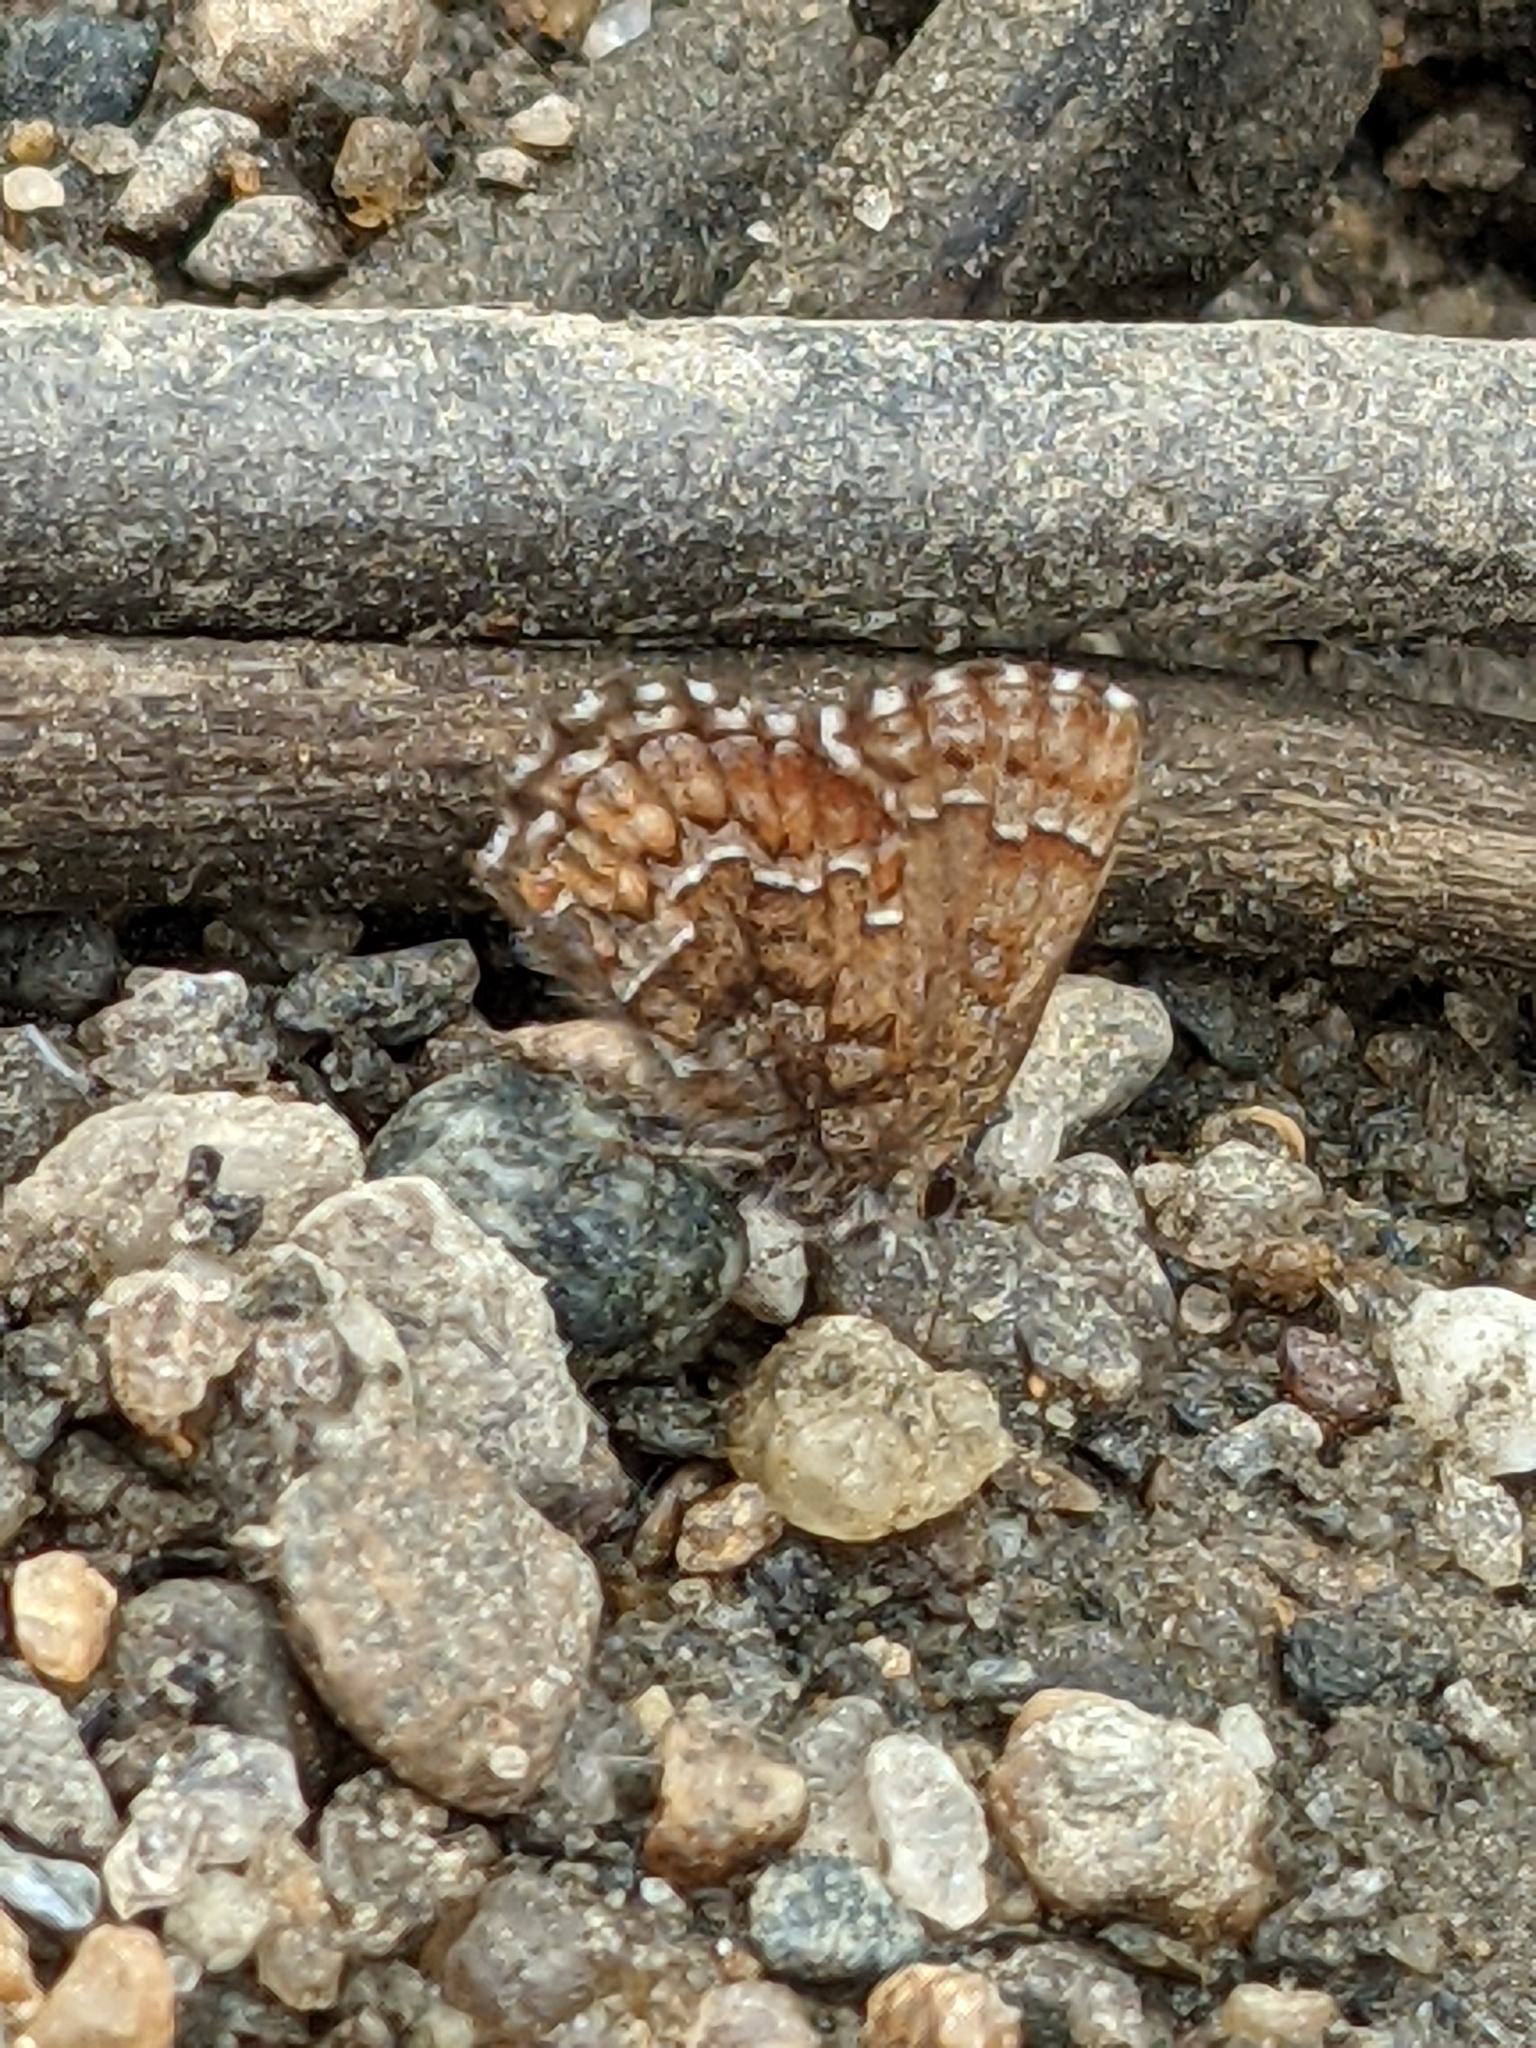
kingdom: Animalia
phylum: Arthropoda
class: Insecta
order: Lepidoptera
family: Lycaenidae
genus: Incisalia
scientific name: Incisalia niphon
